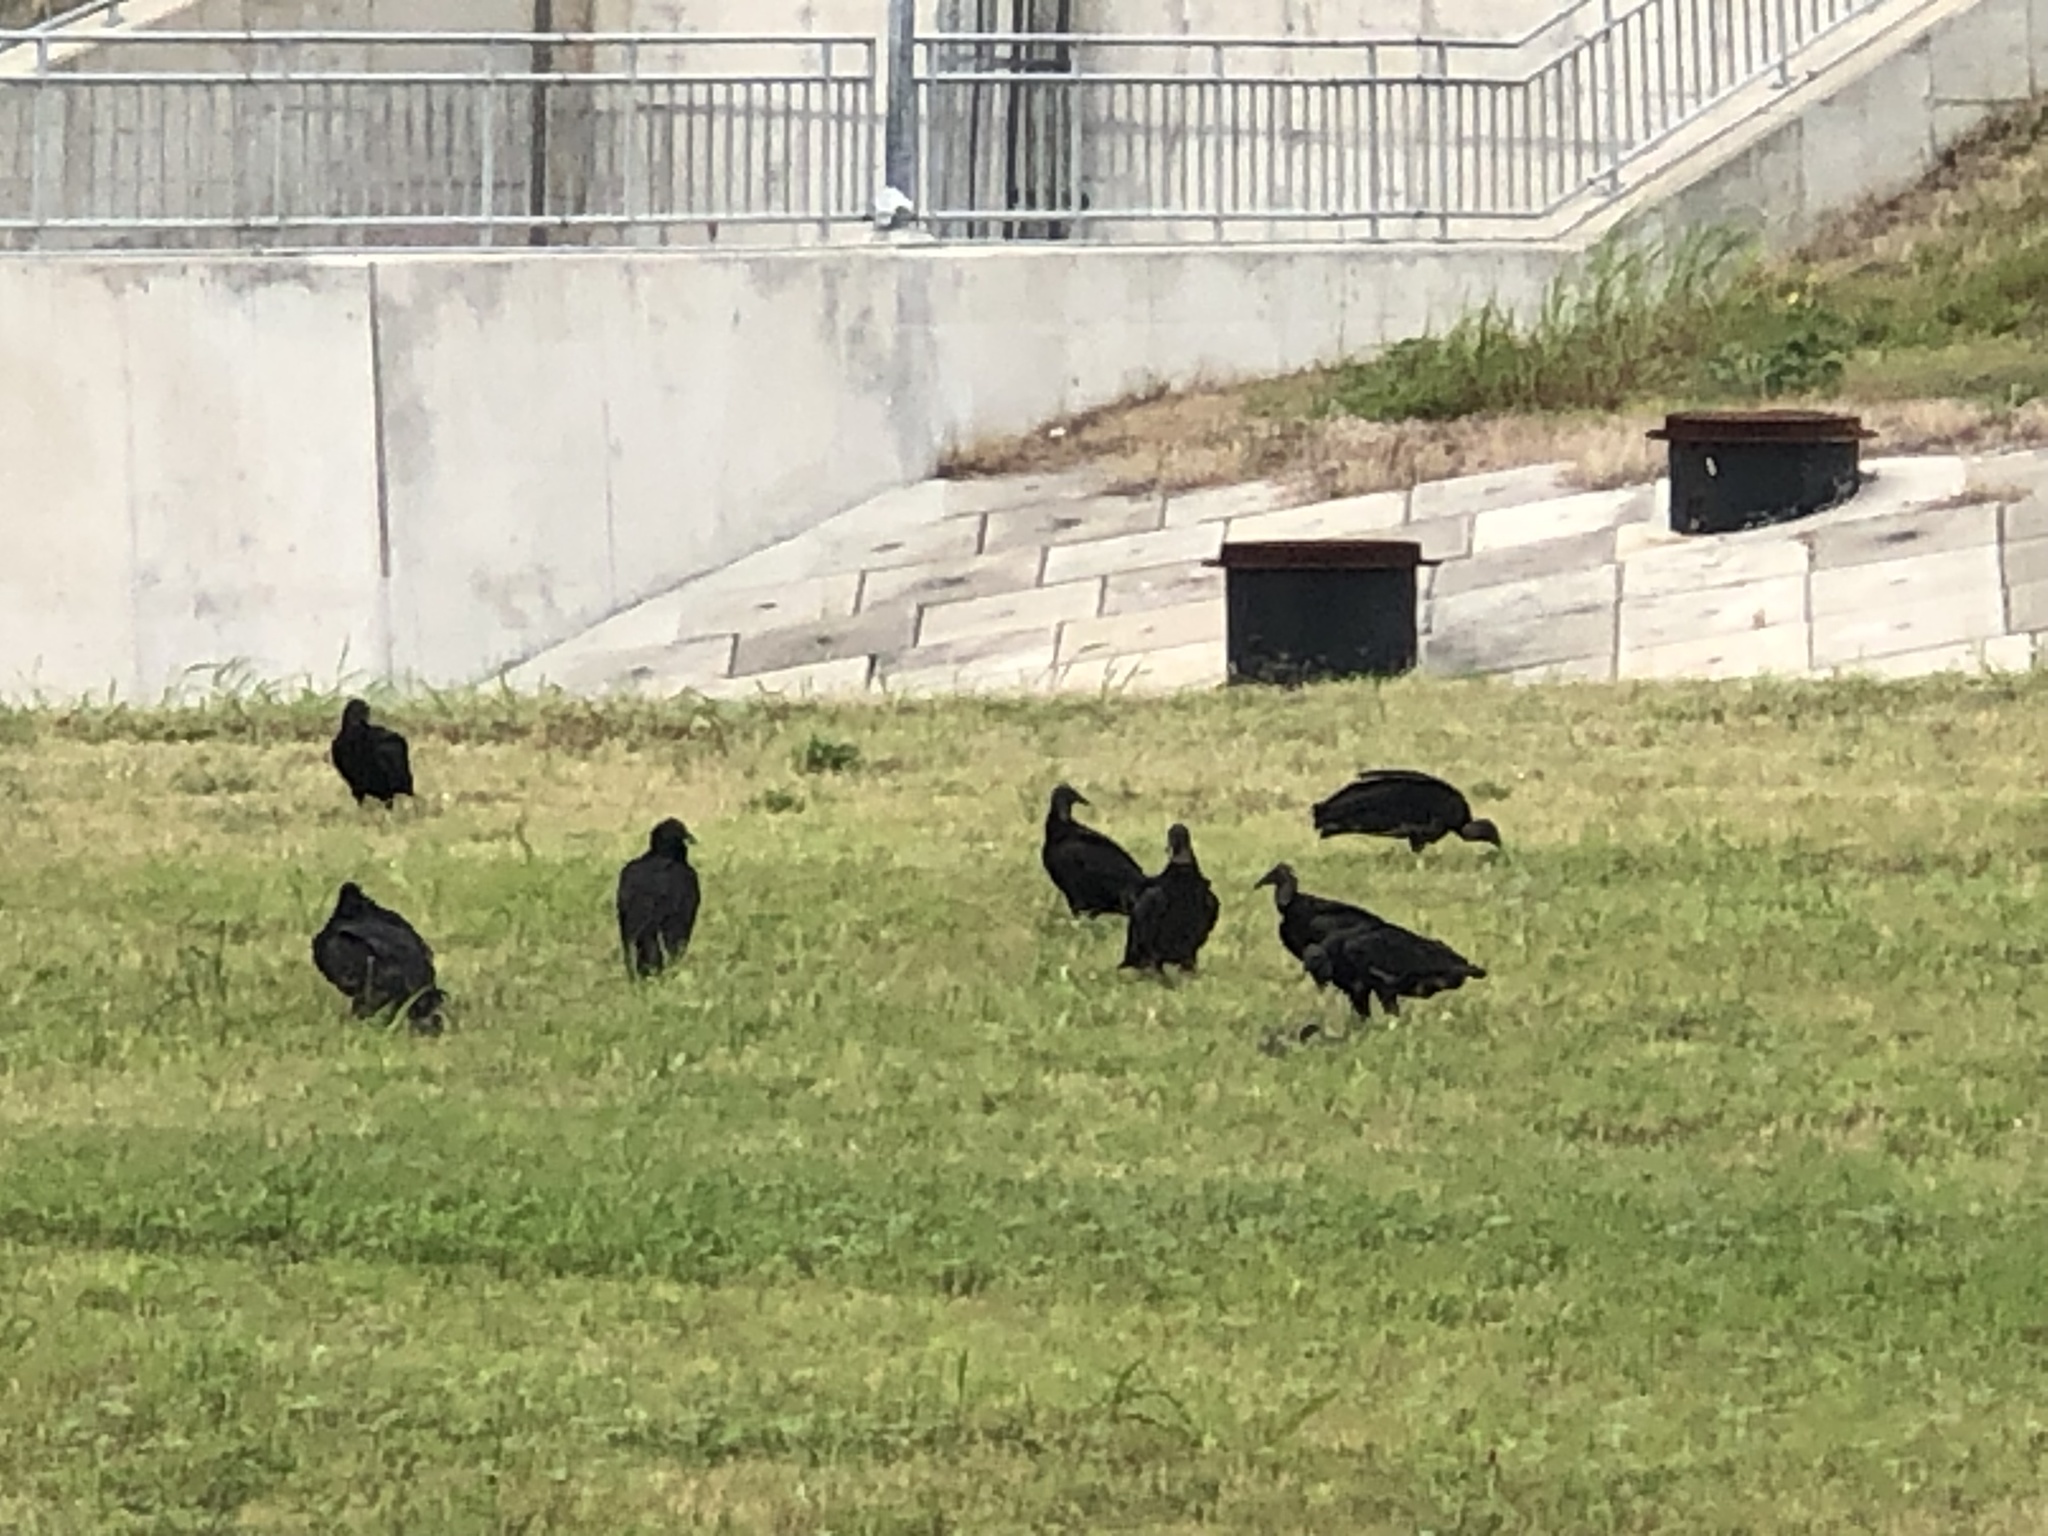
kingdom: Animalia
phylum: Chordata
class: Aves
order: Accipitriformes
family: Cathartidae
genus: Coragyps
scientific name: Coragyps atratus
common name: Black vulture
